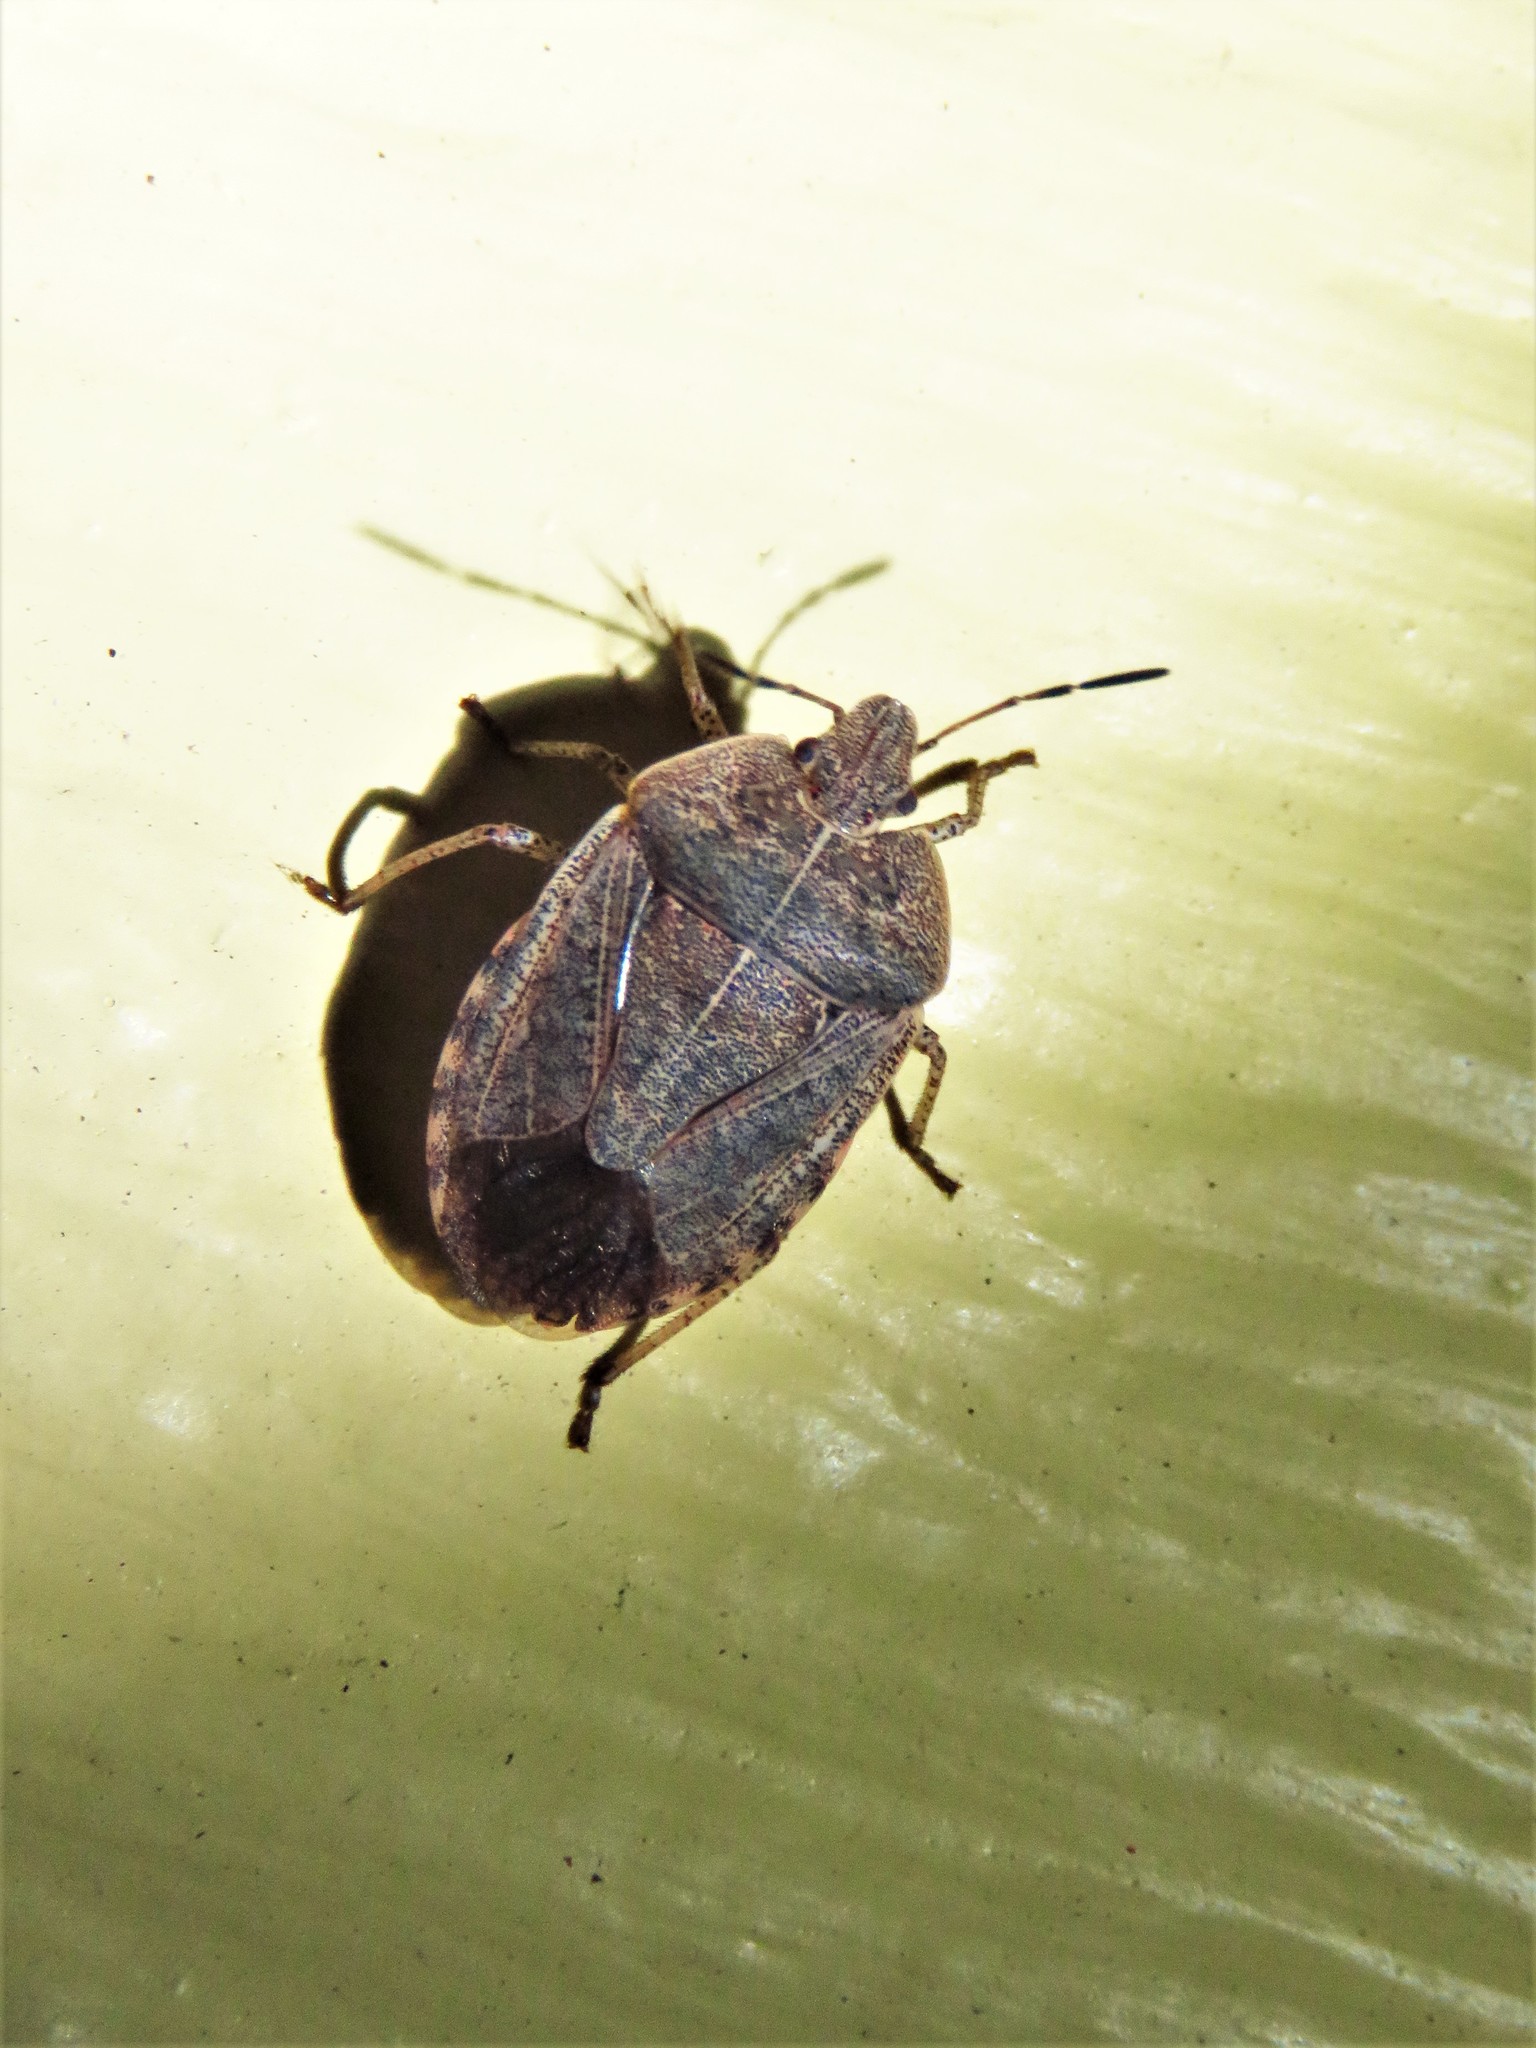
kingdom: Animalia
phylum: Arthropoda
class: Insecta
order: Hemiptera
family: Pentatomidae
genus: Menecles
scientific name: Menecles insertus
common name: Elf shoe stink bug
